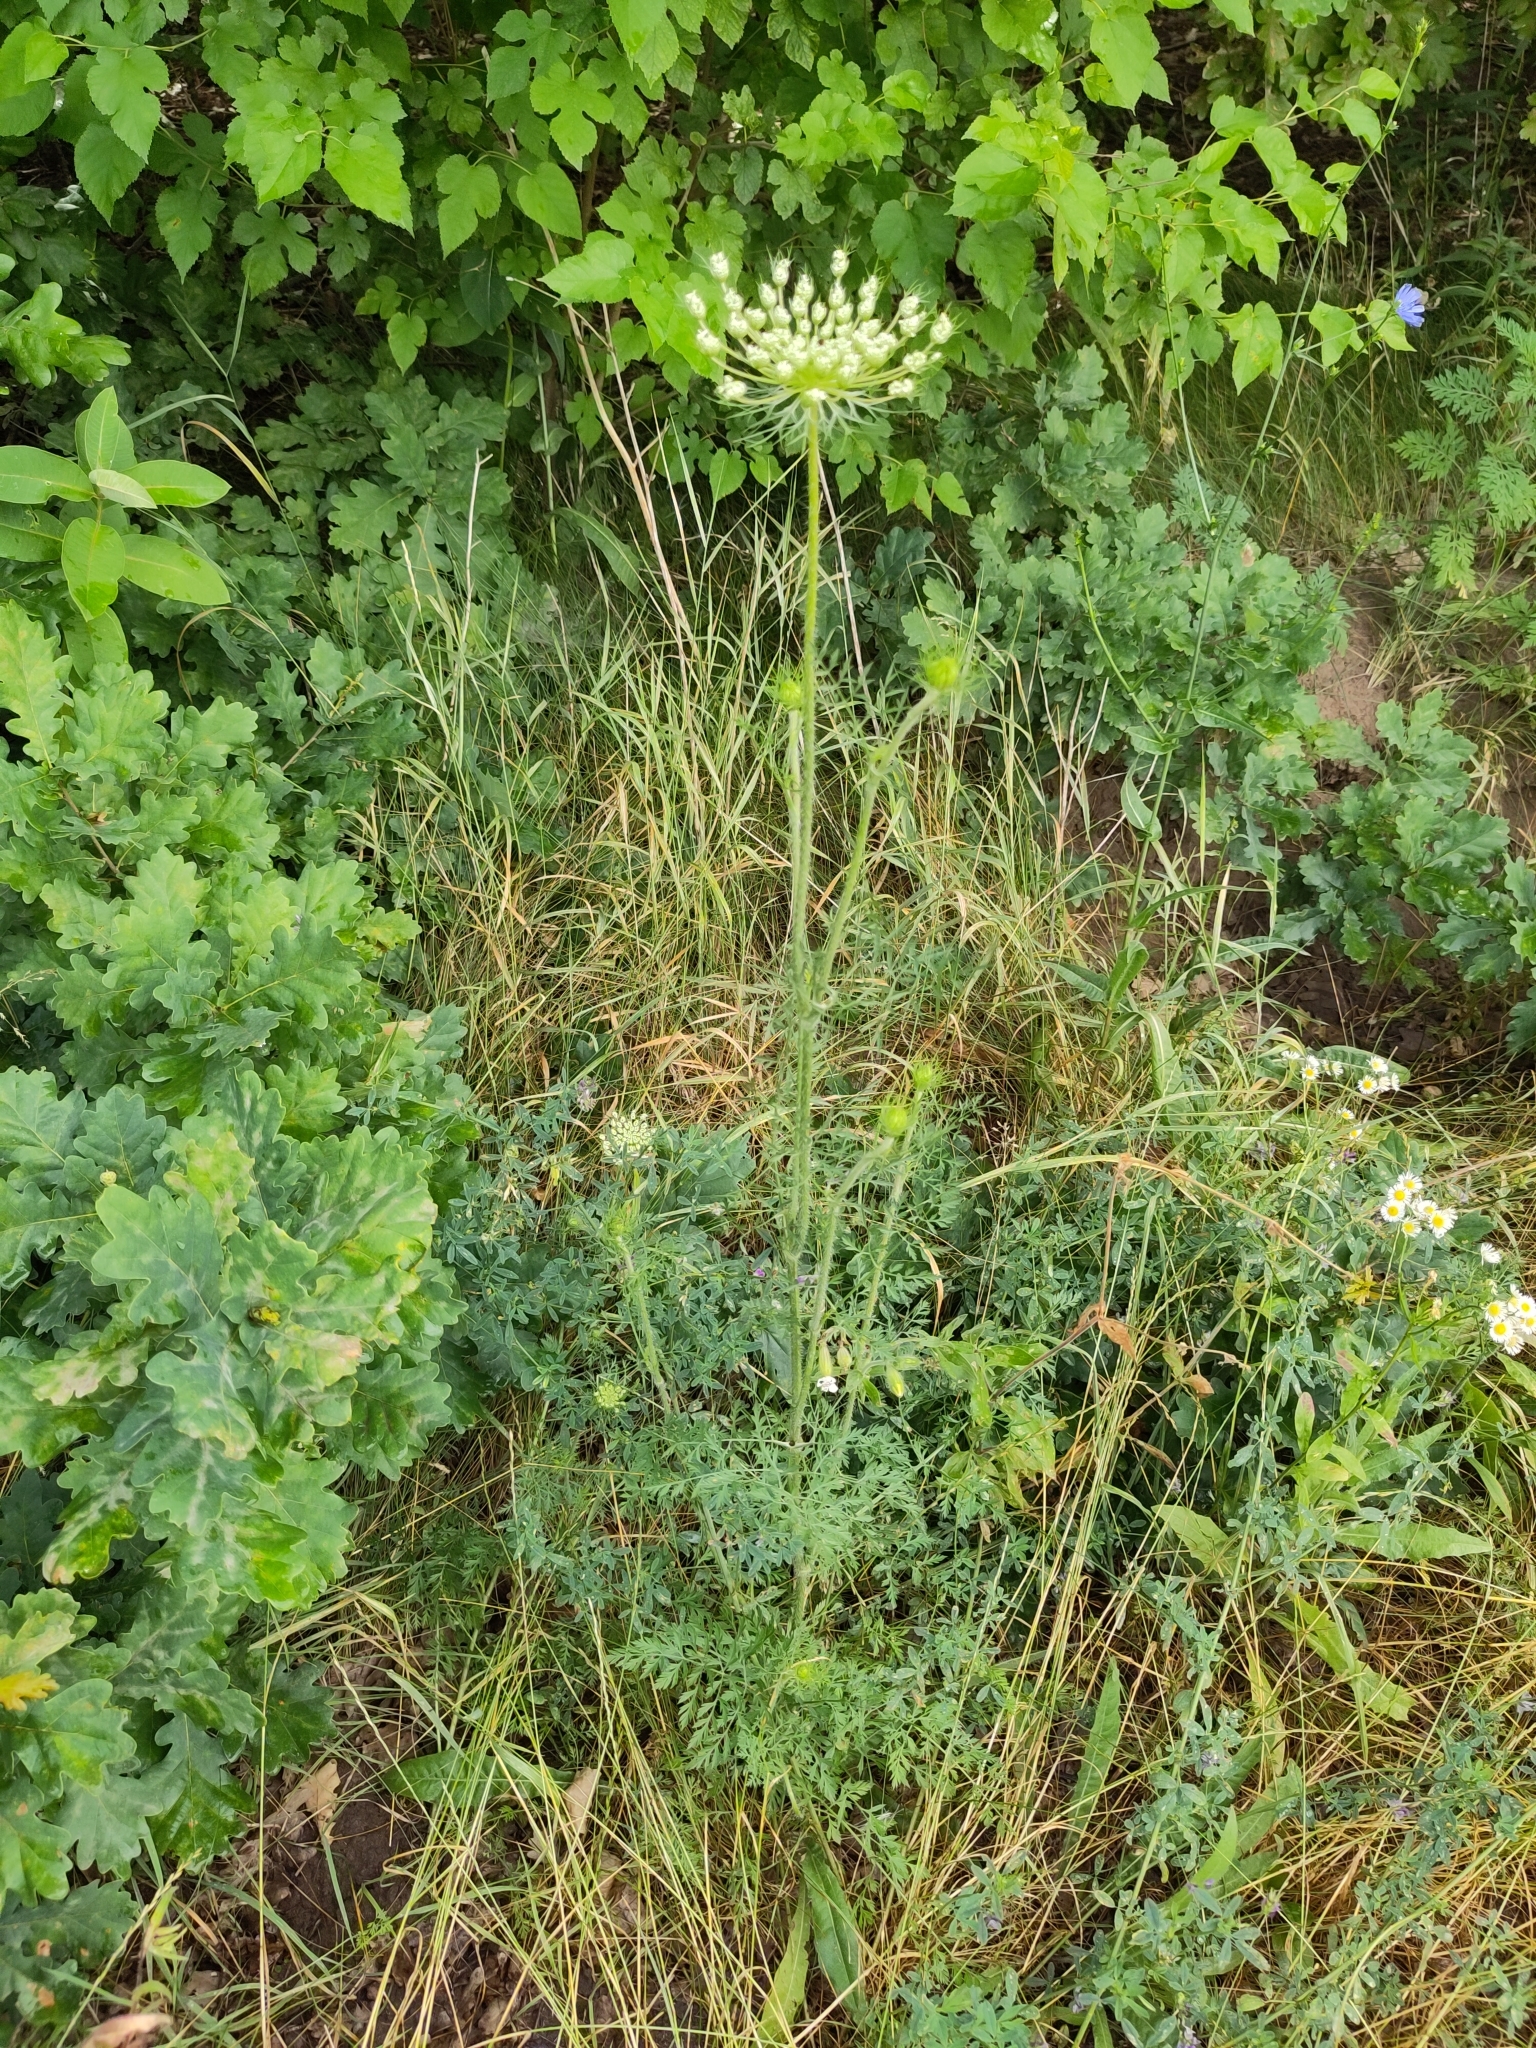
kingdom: Plantae
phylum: Tracheophyta
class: Magnoliopsida
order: Apiales
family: Apiaceae
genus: Daucus
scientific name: Daucus carota
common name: Wild carrot
